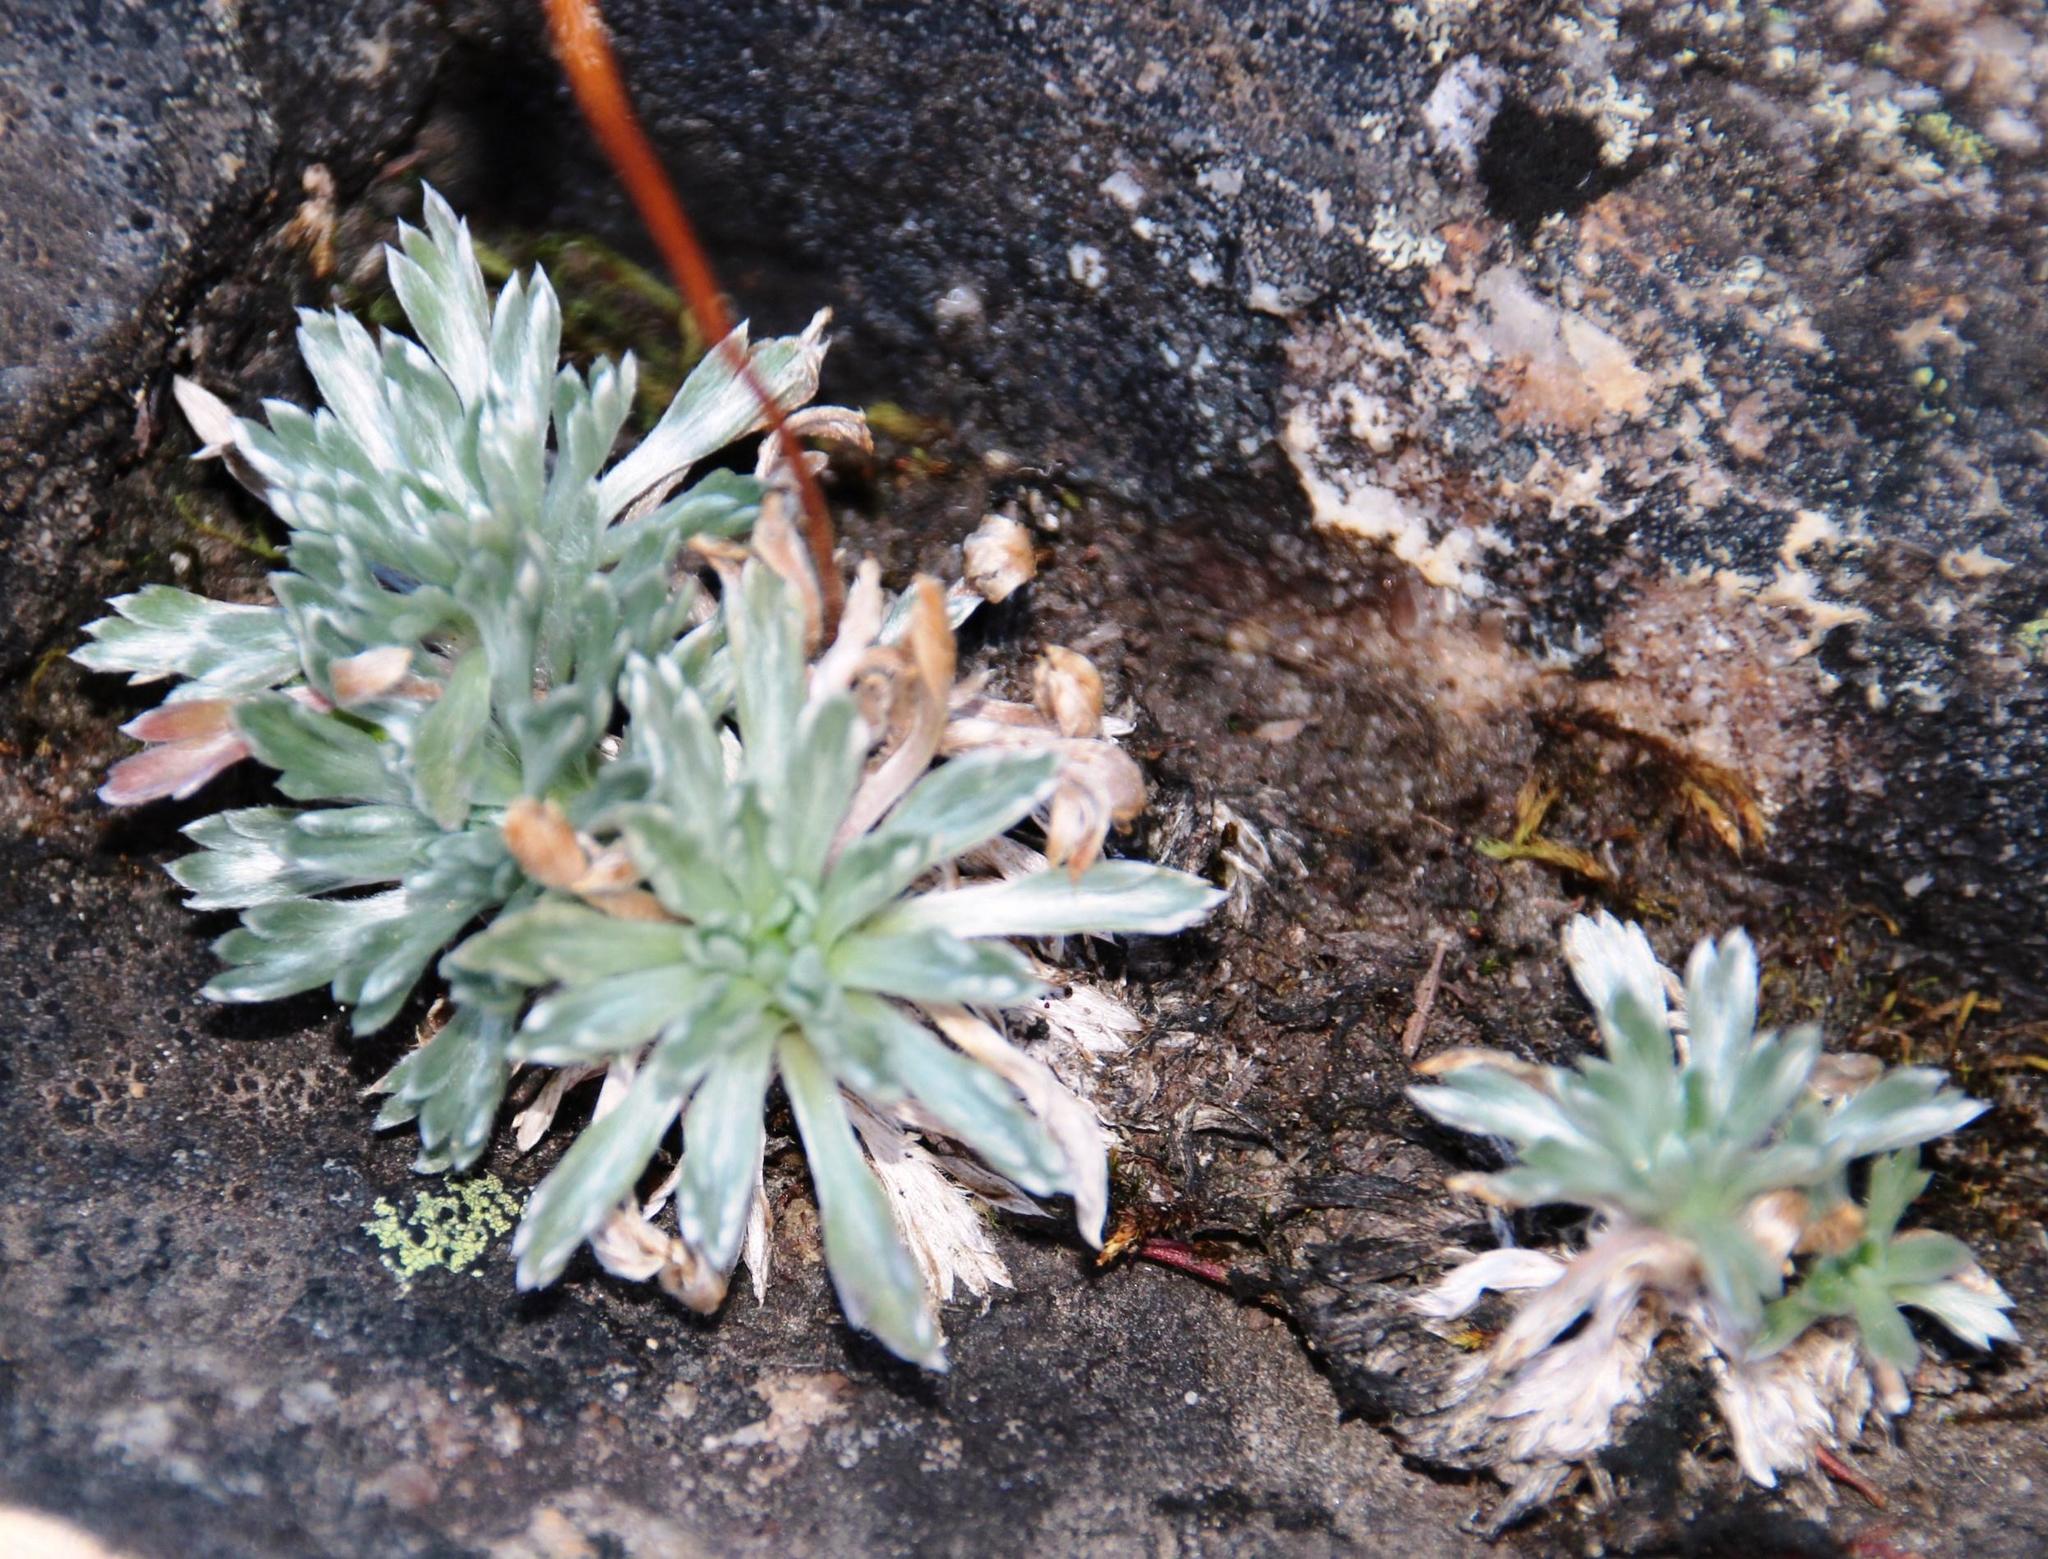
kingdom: Plantae
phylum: Tracheophyta
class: Magnoliopsida
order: Asterales
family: Asteraceae
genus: Cotula
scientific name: Cotula andreae
